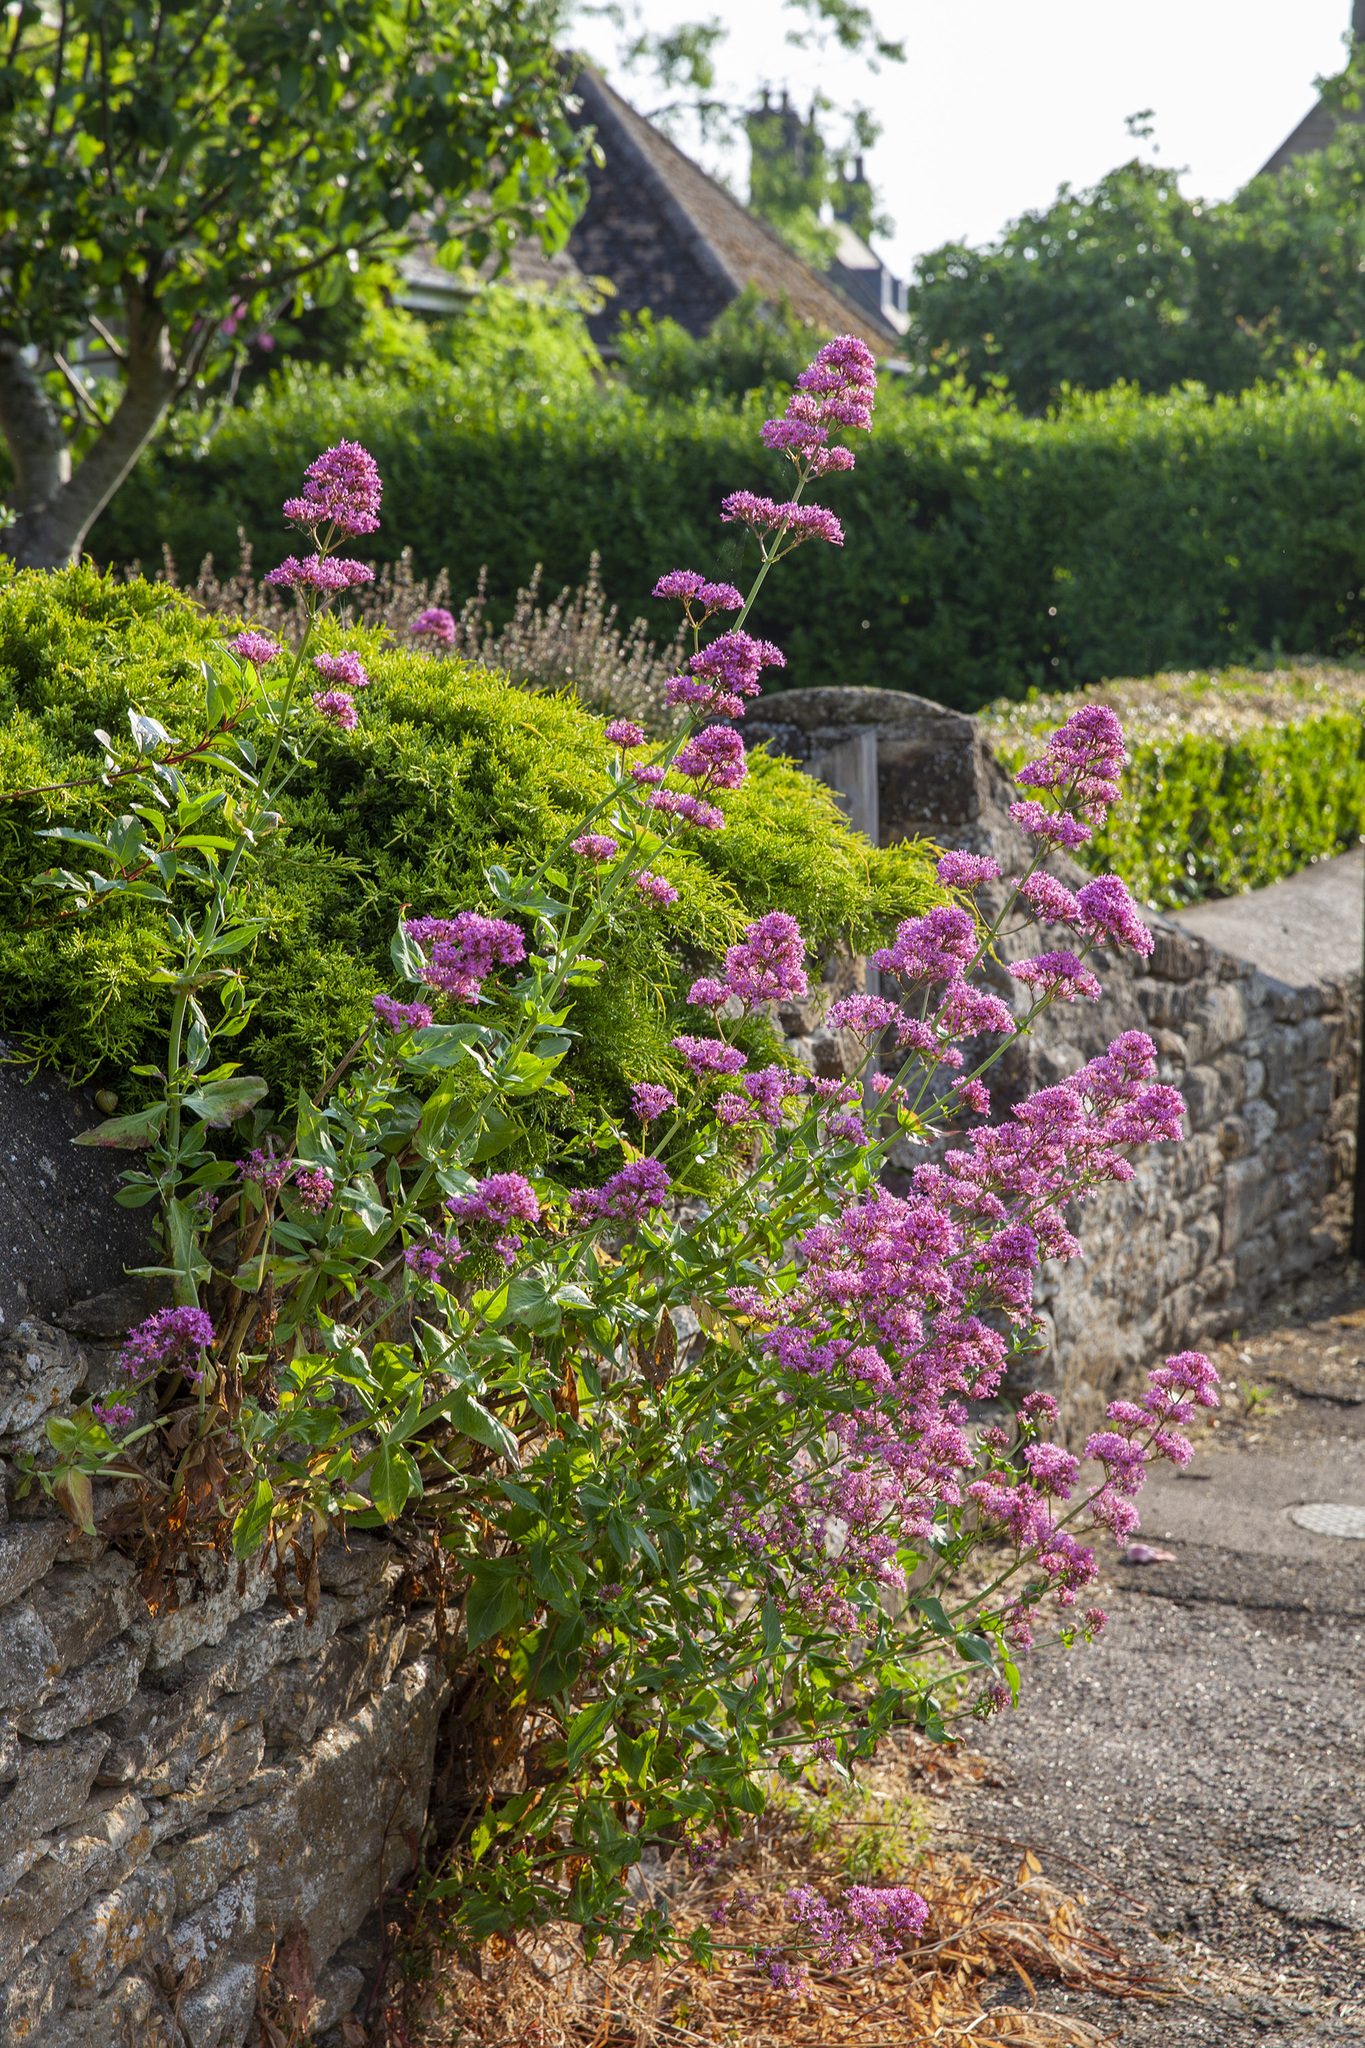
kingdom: Plantae
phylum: Tracheophyta
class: Magnoliopsida
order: Dipsacales
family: Caprifoliaceae
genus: Centranthus
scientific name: Centranthus ruber
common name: Red valerian
